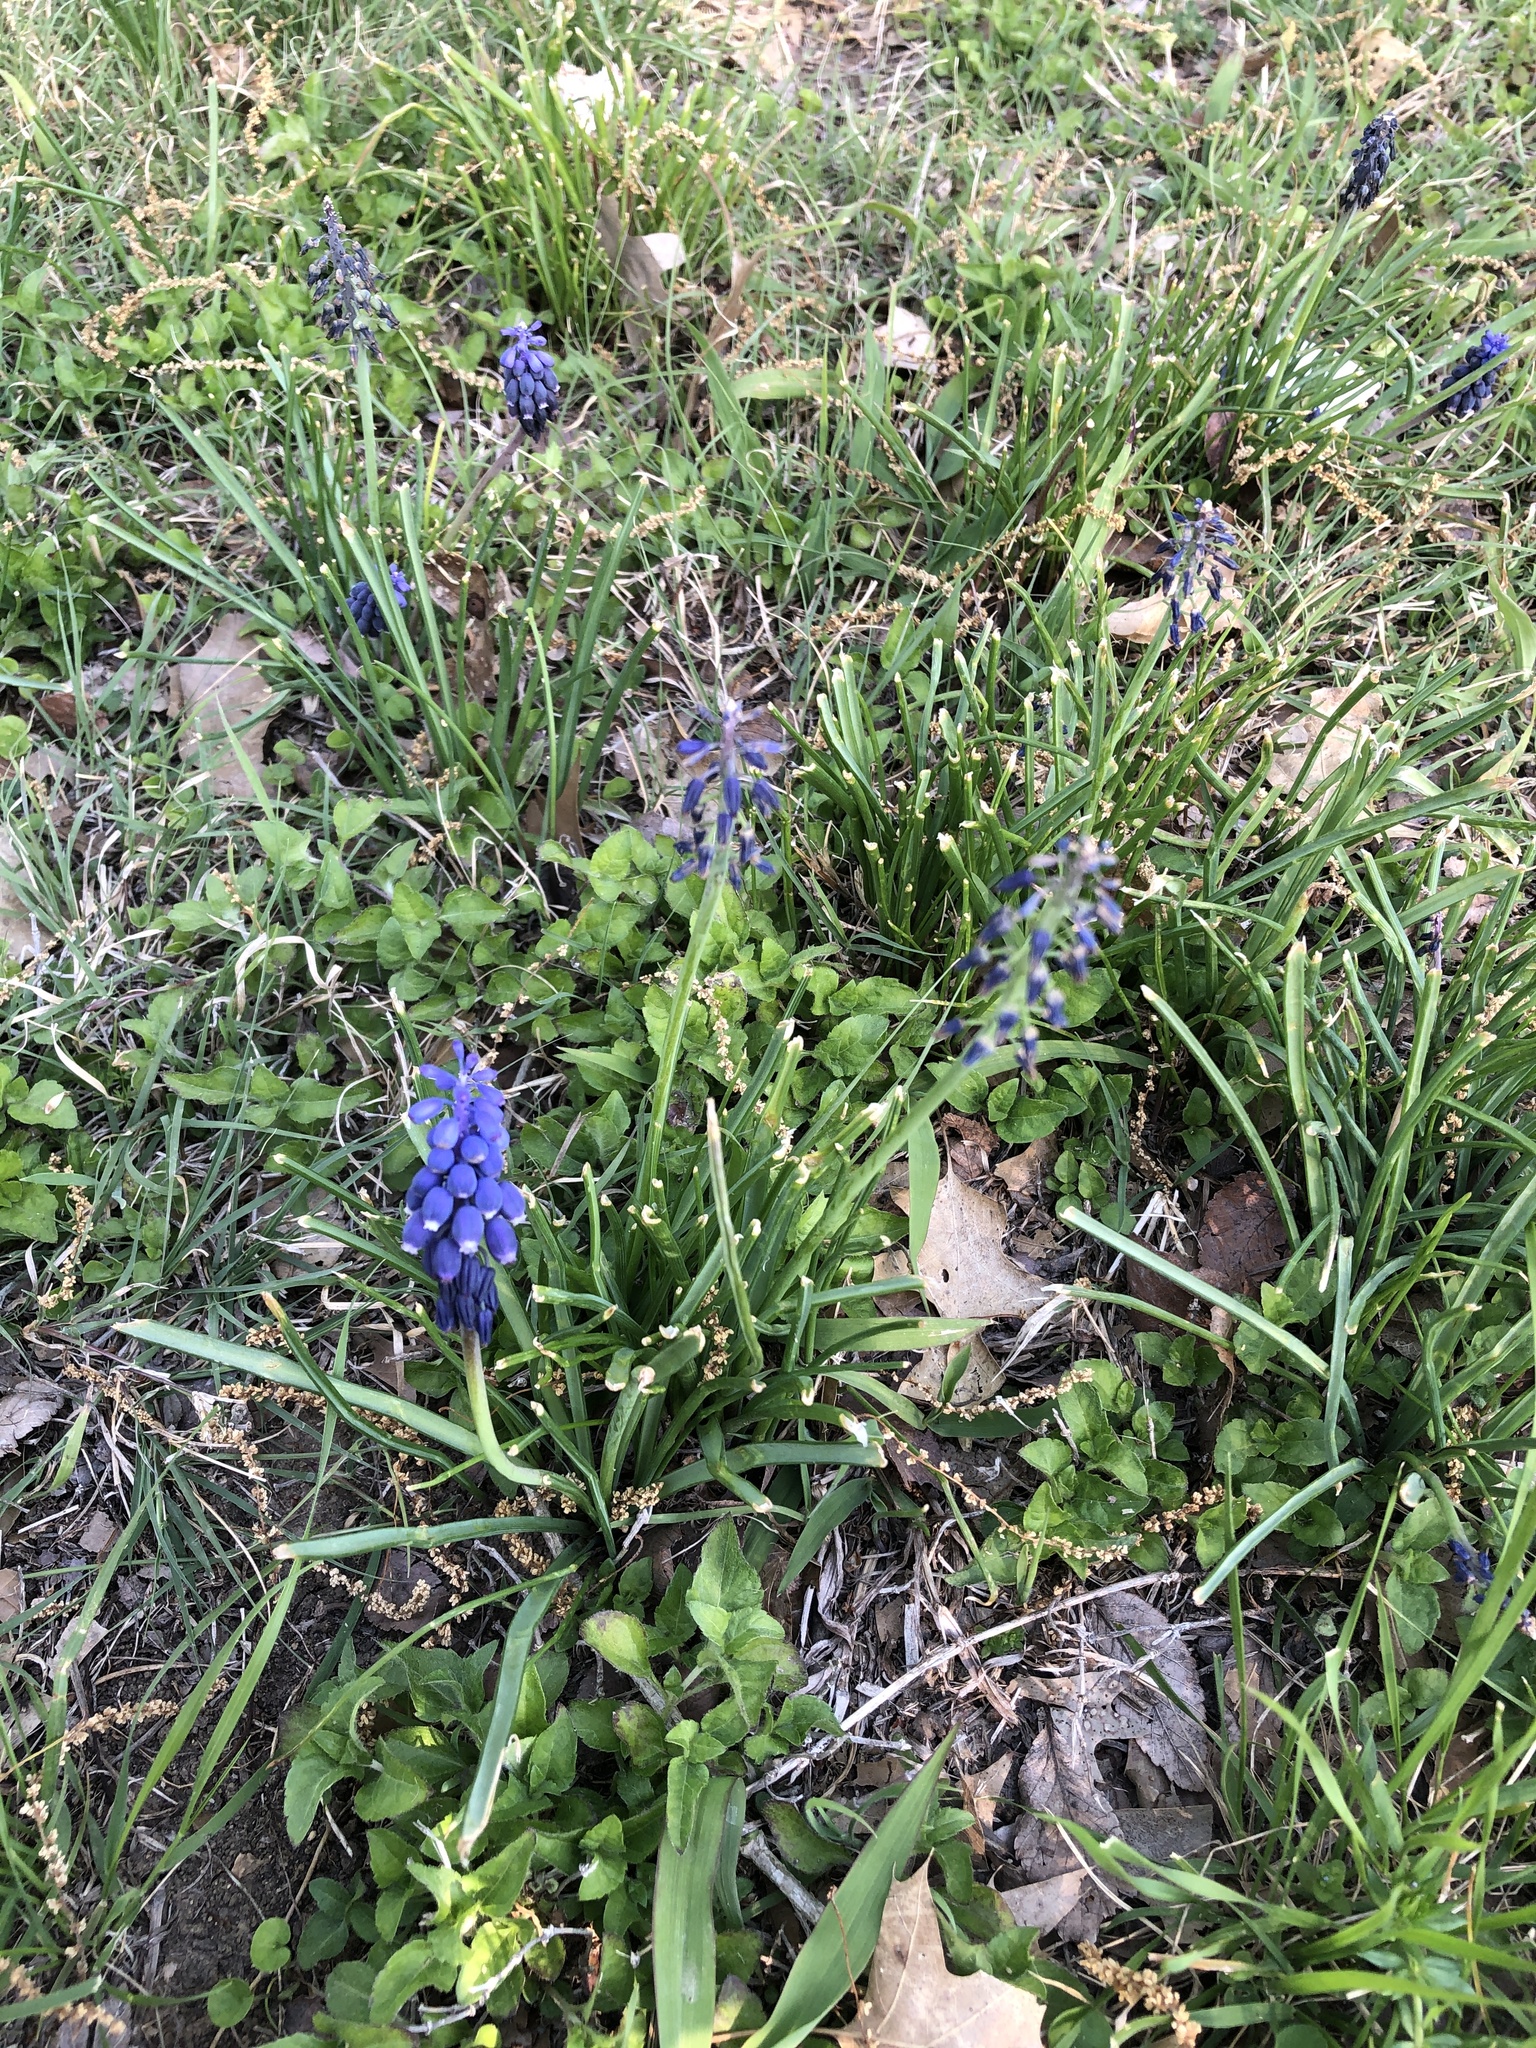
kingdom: Plantae
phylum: Tracheophyta
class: Liliopsida
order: Asparagales
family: Asparagaceae
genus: Muscari
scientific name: Muscari neglectum
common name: Grape-hyacinth
